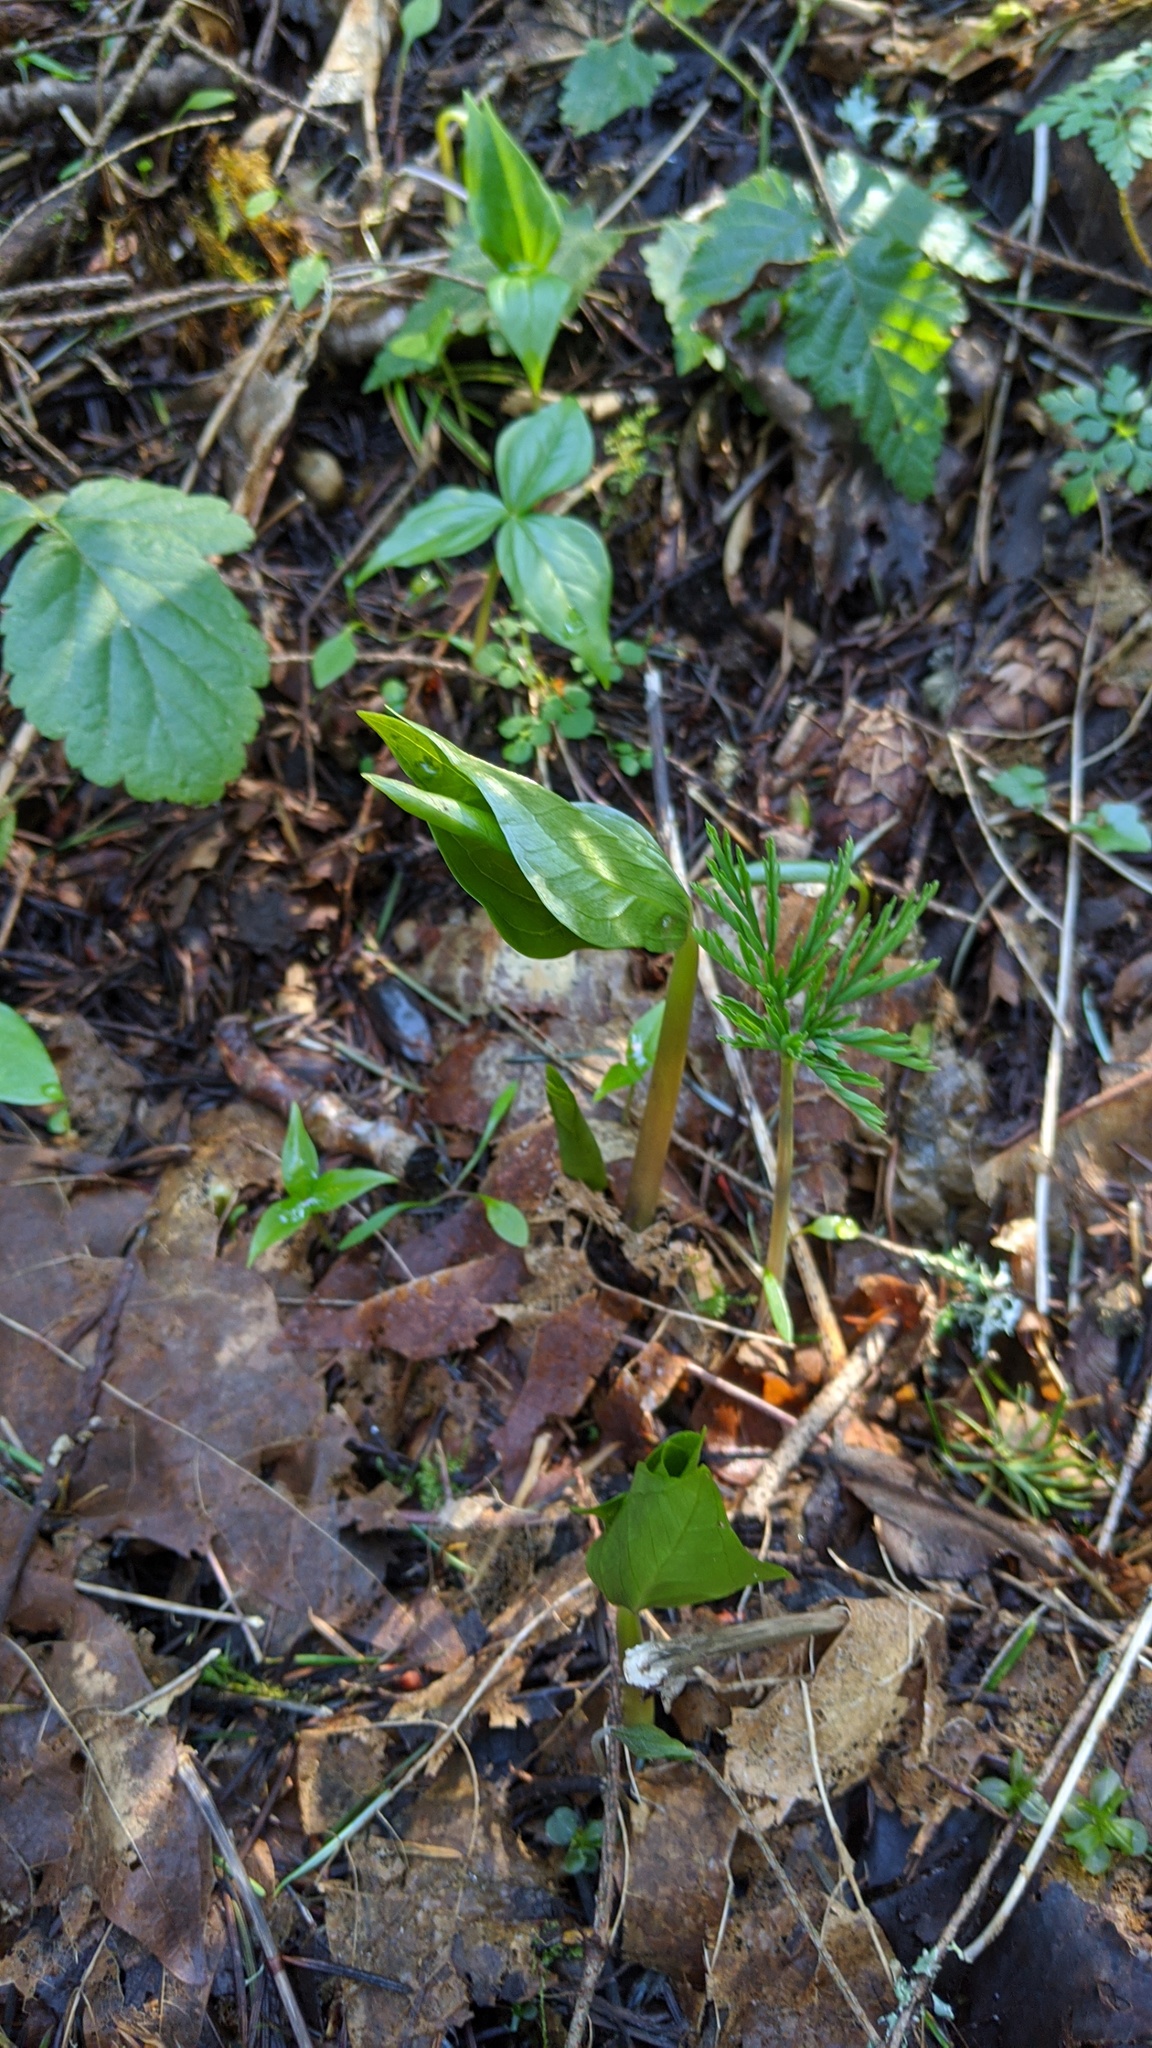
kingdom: Plantae
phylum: Tracheophyta
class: Liliopsida
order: Liliales
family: Melanthiaceae
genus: Trillium
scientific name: Trillium ovatum
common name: Pacific trillium
